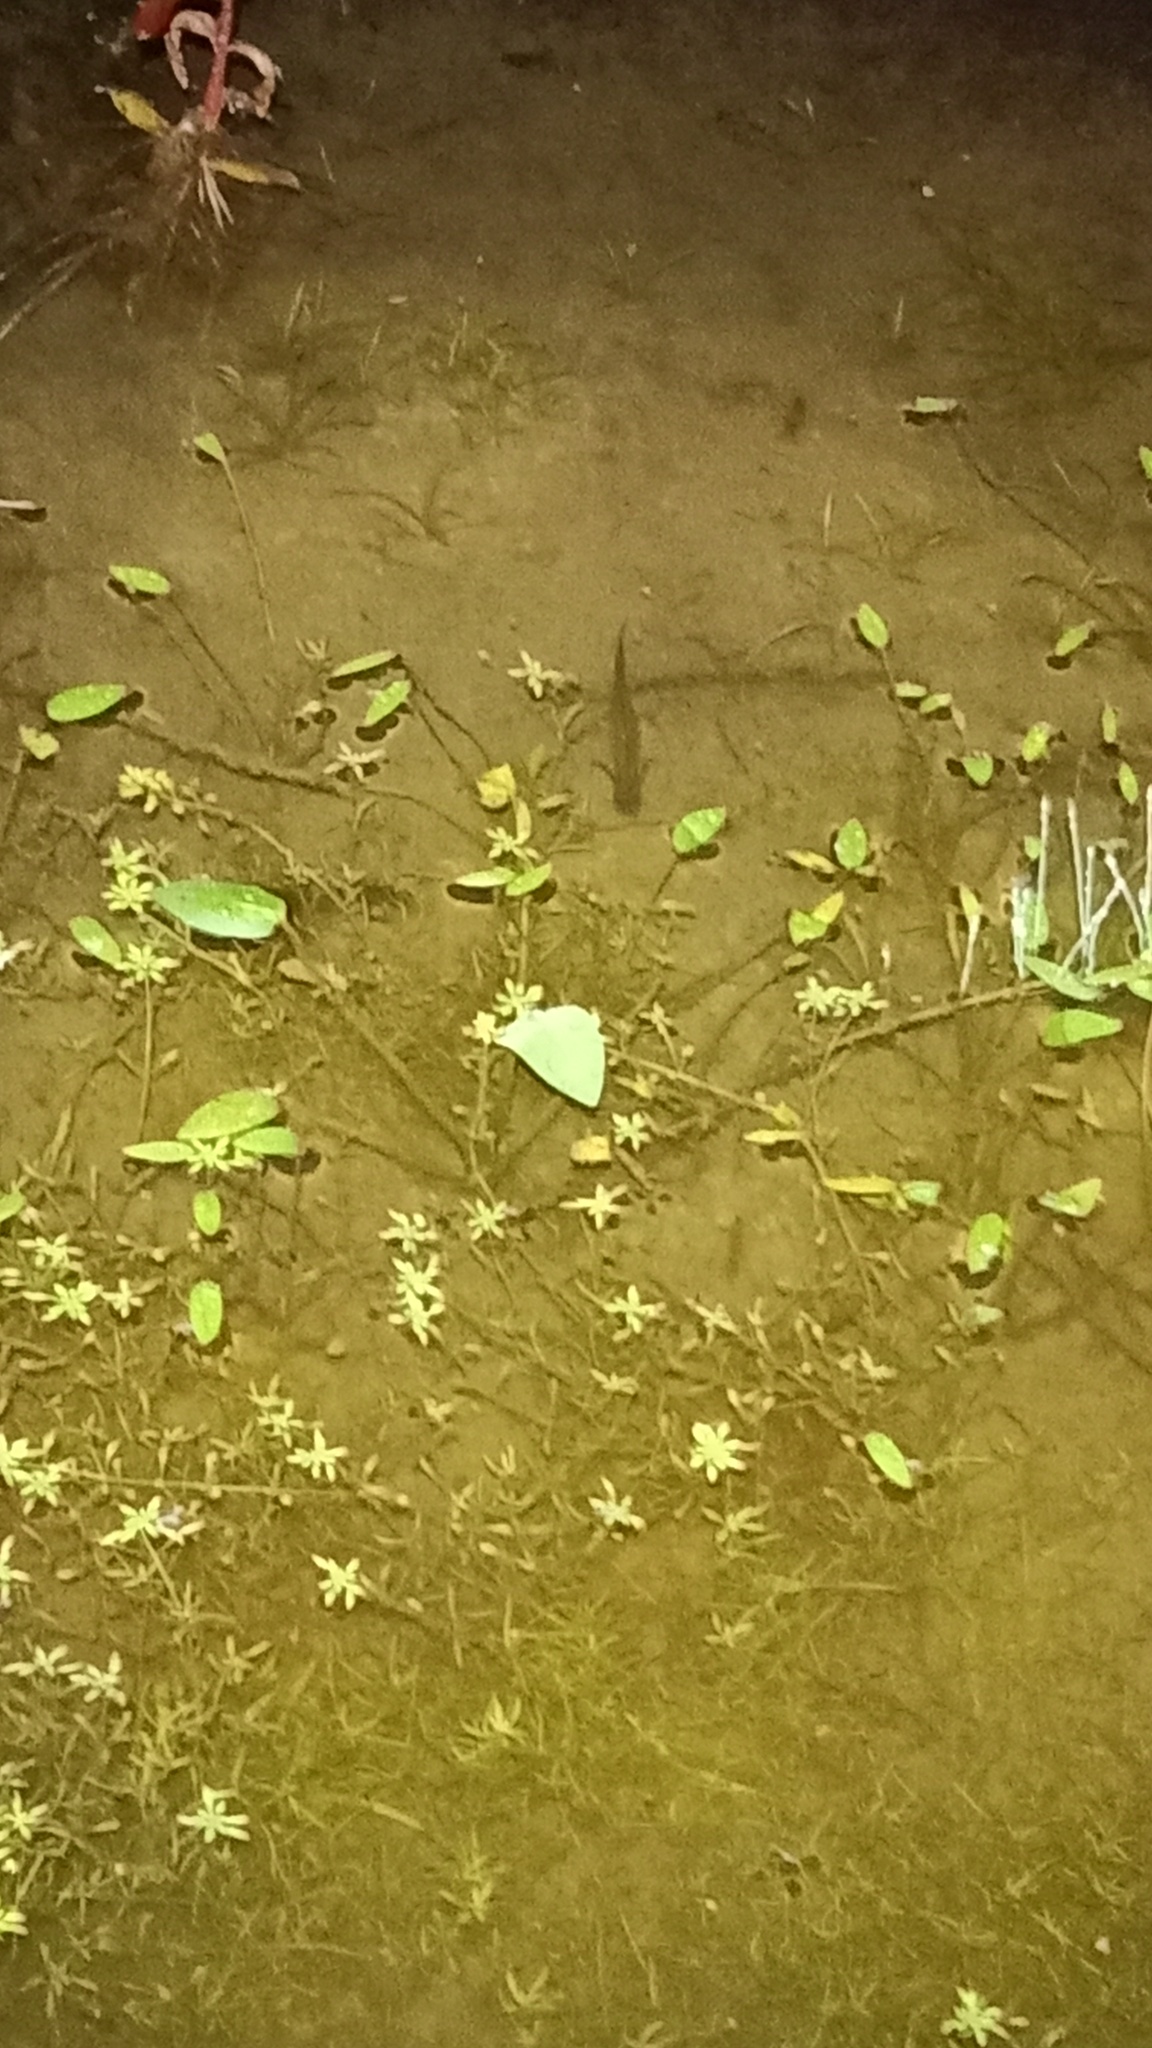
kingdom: Animalia
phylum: Chordata
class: Amphibia
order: Caudata
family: Salamandridae
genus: Triturus
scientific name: Triturus cristatus
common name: Crested newt
